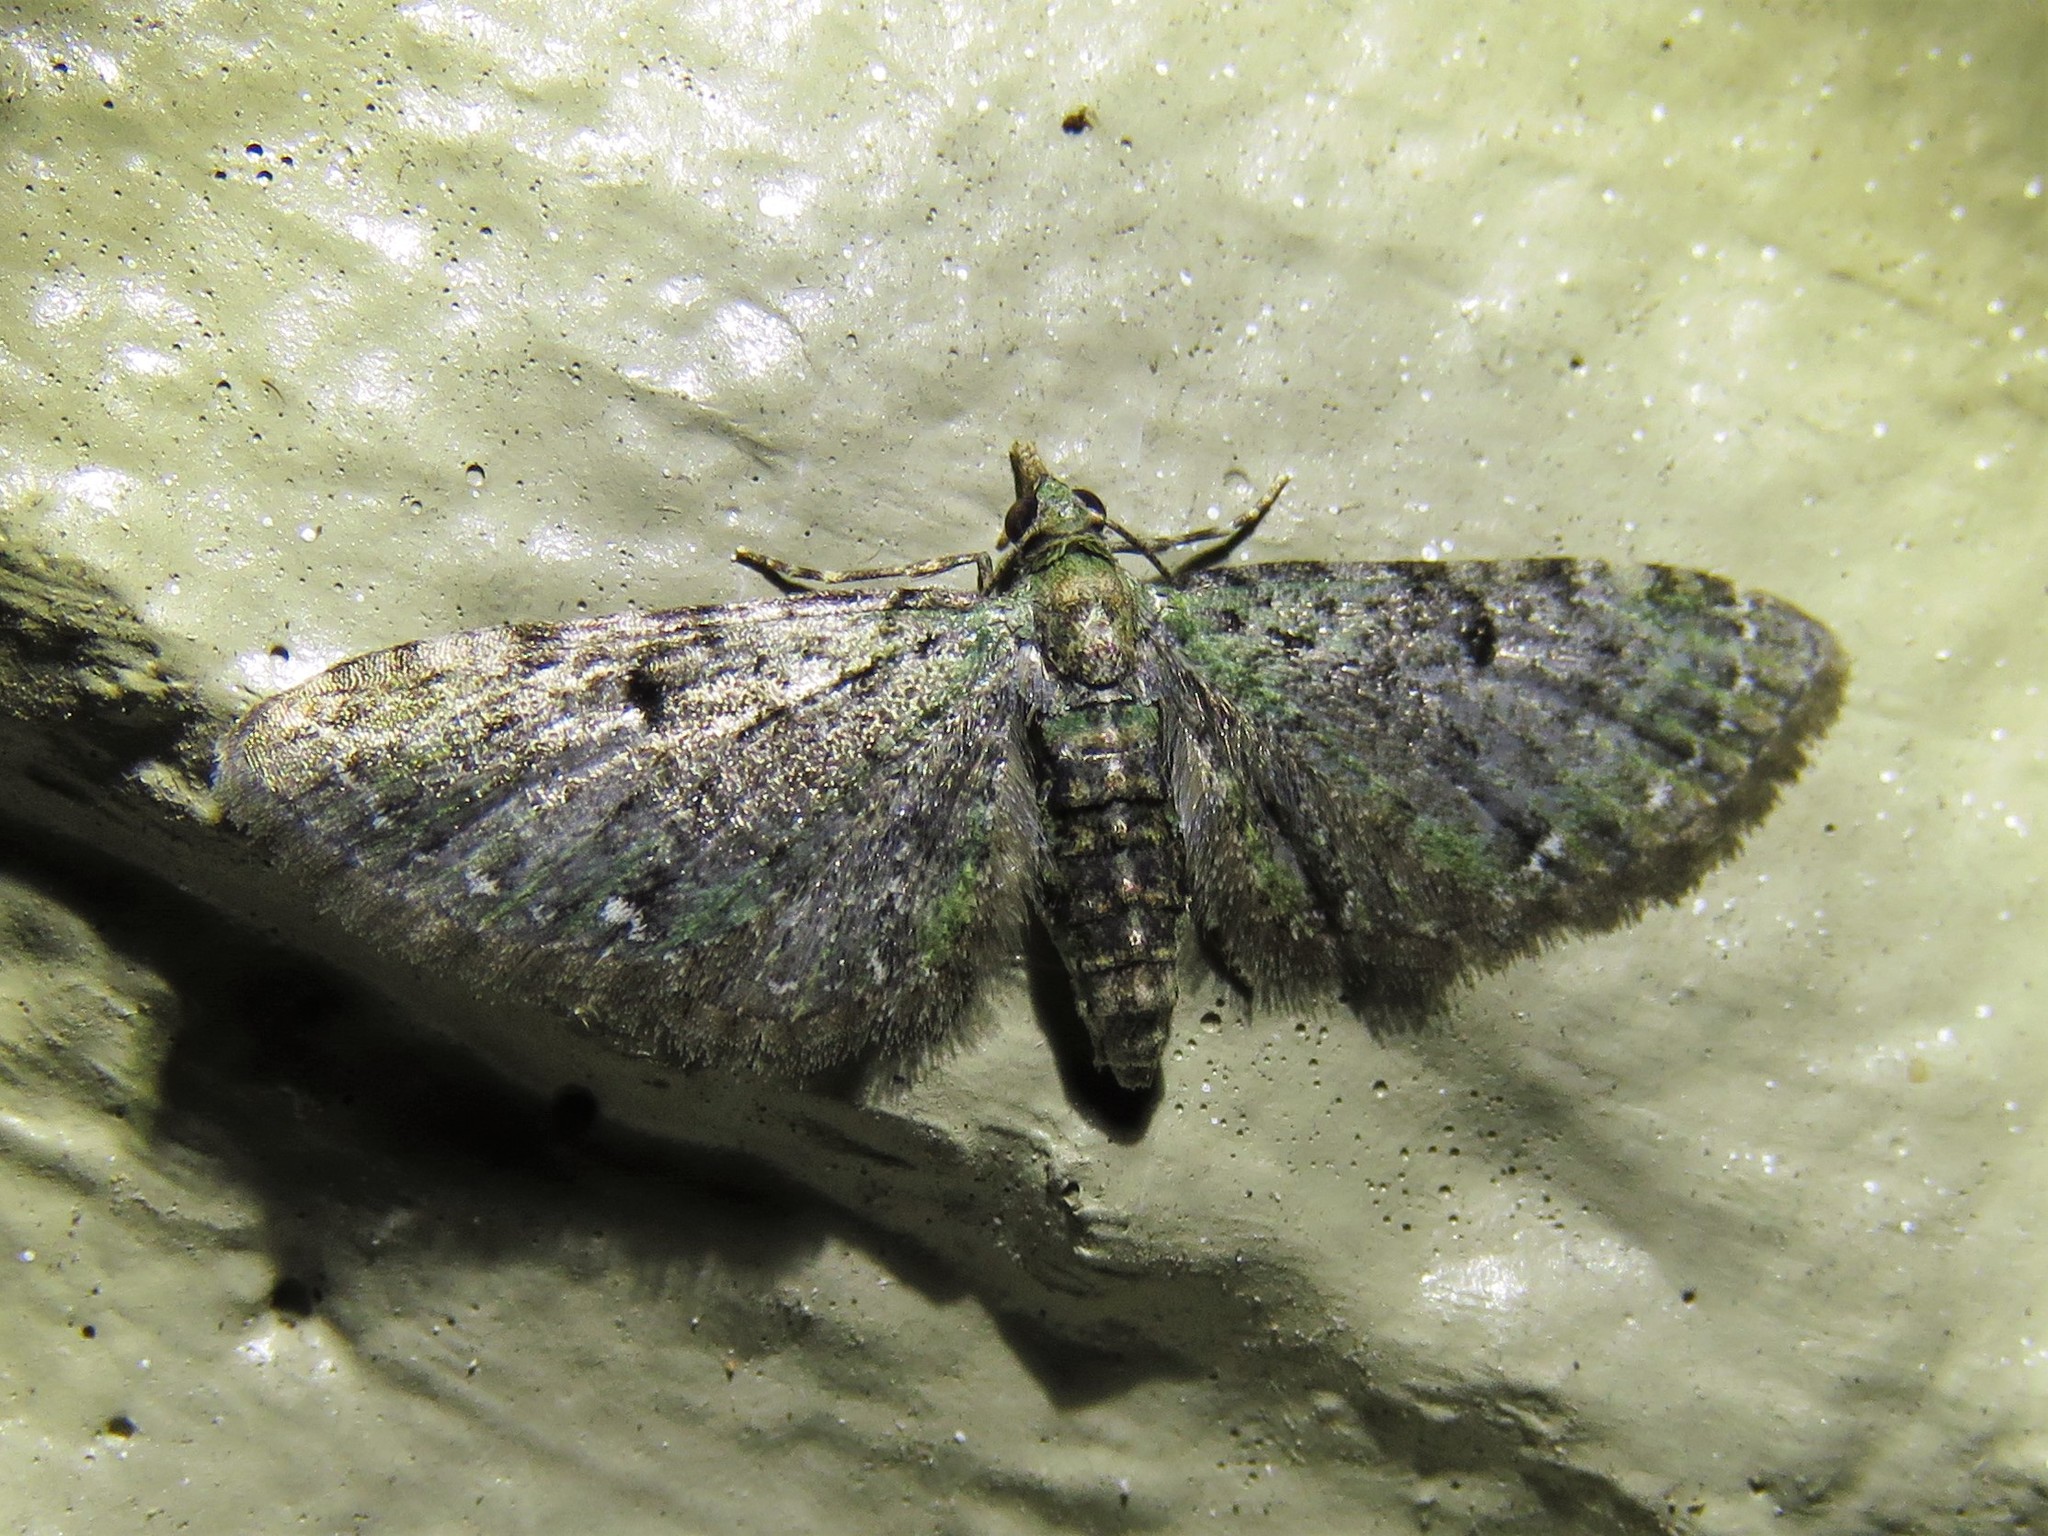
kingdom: Animalia
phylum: Arthropoda
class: Insecta
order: Lepidoptera
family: Geometridae
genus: Eupithecia
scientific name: Eupithecia miserulata
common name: Common eupithecia
